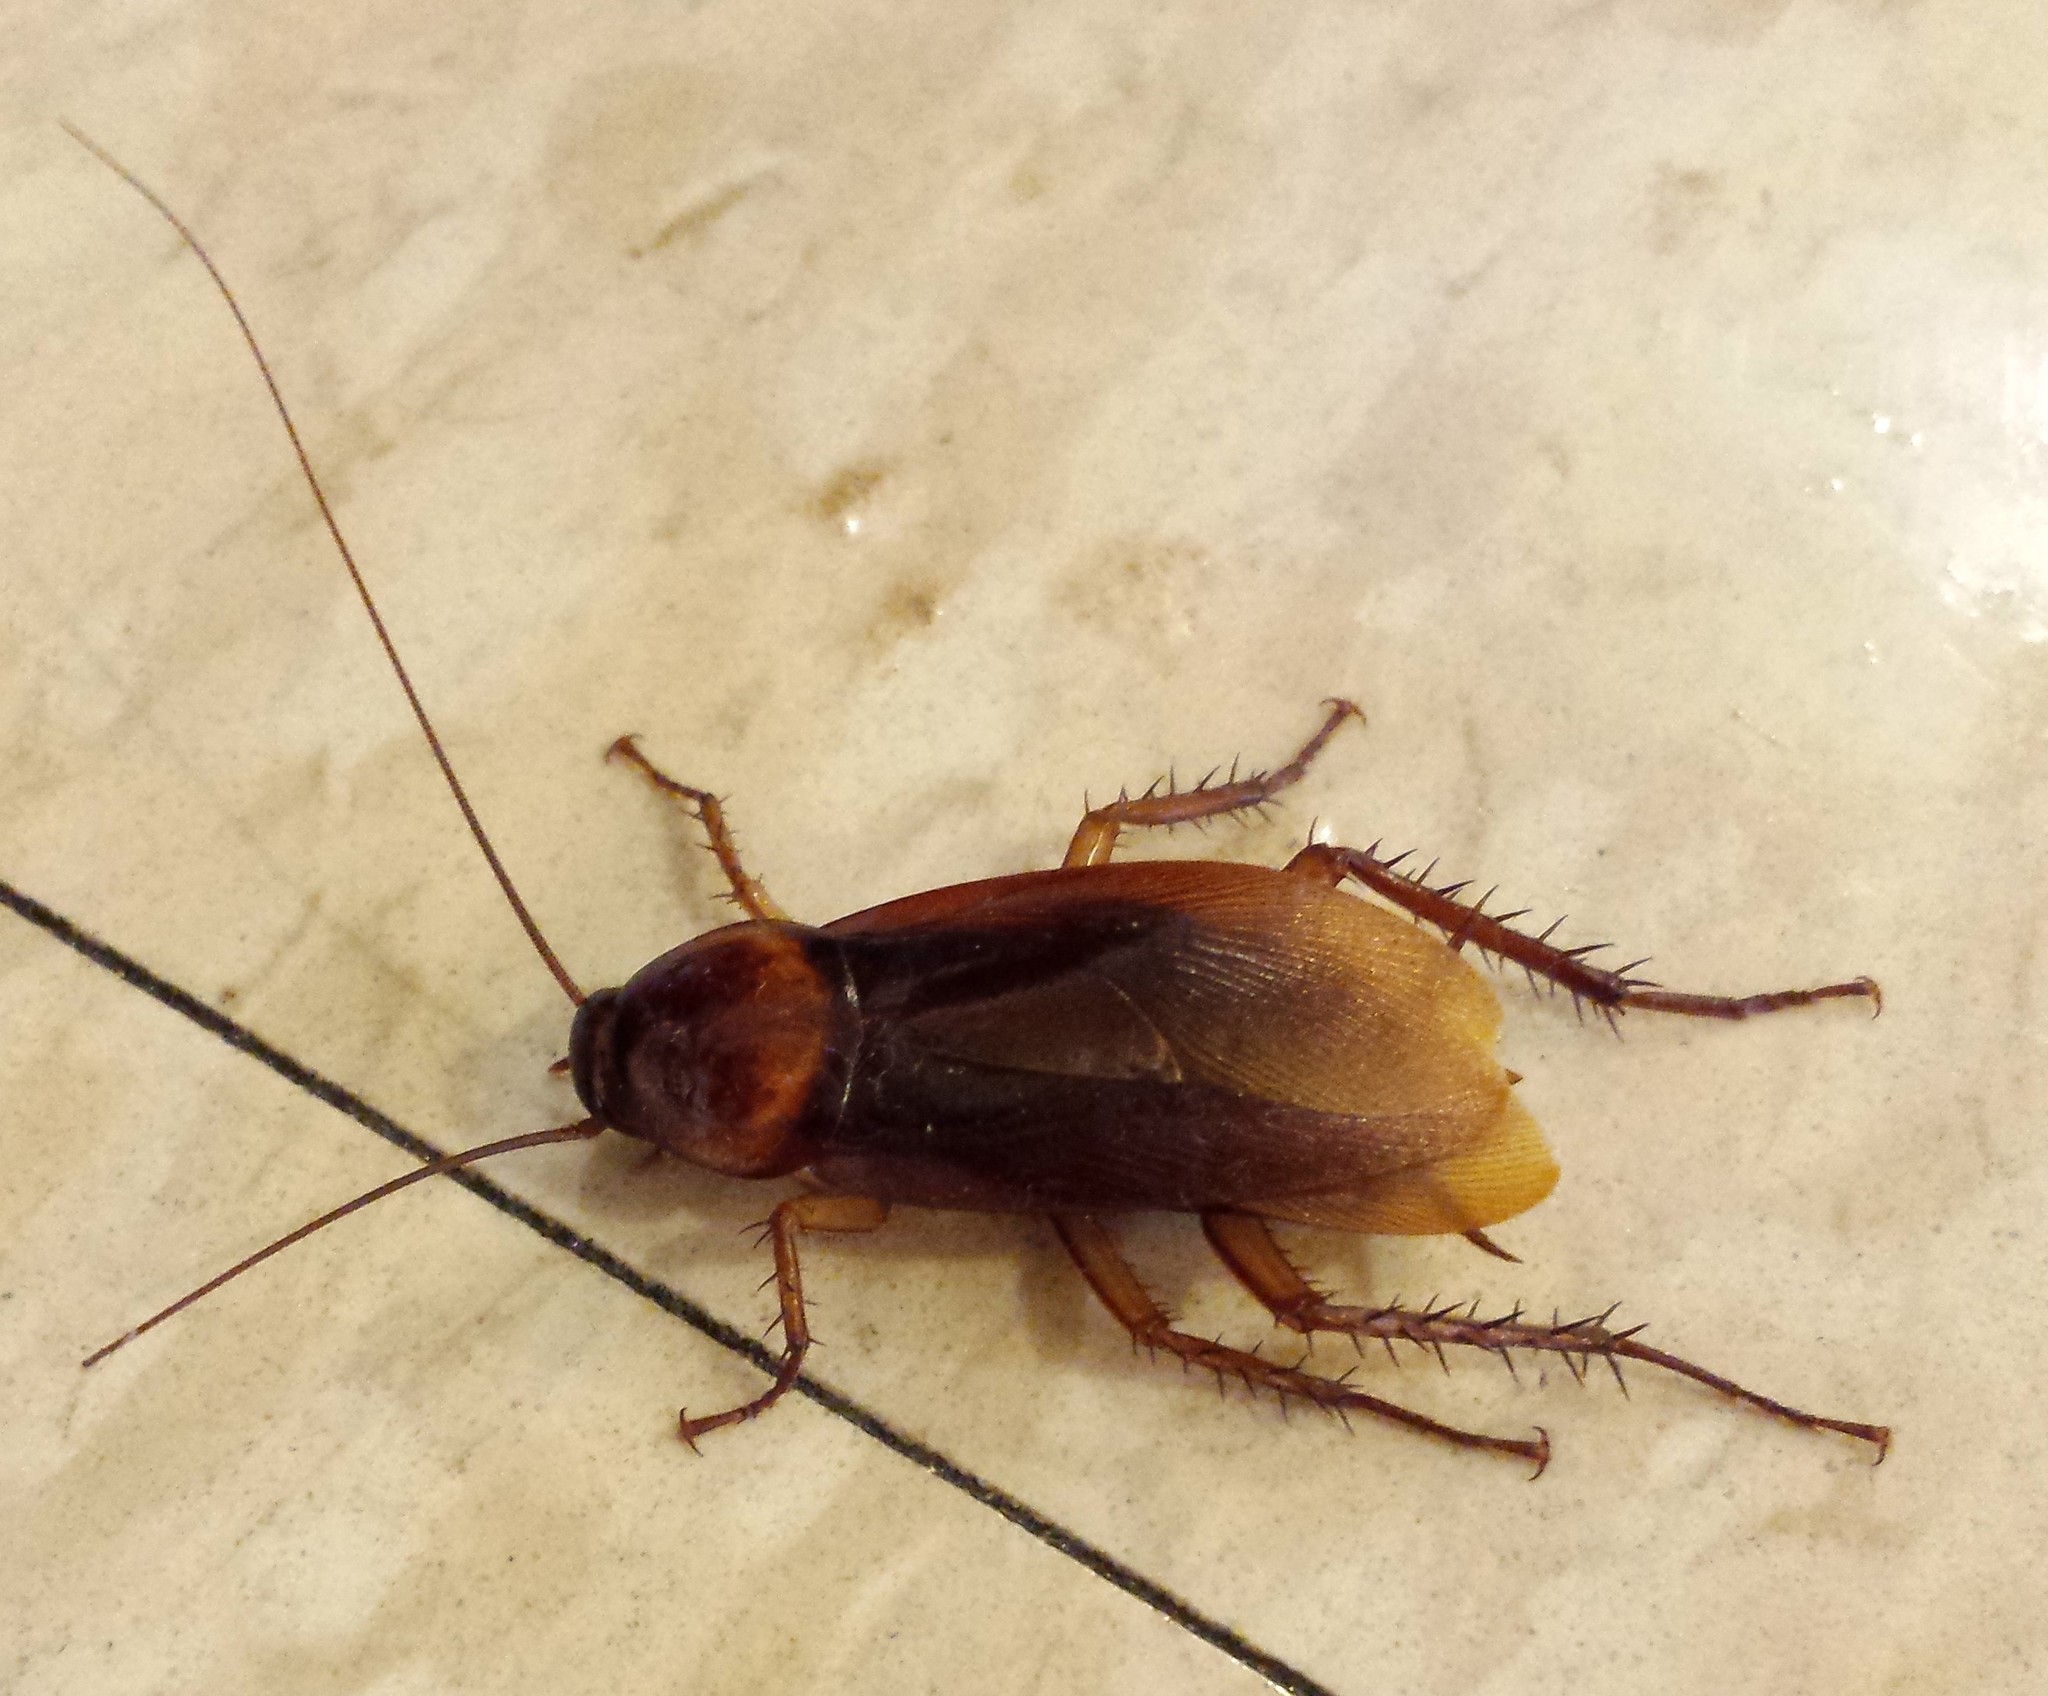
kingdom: Animalia
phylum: Arthropoda
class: Insecta
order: Blattodea
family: Blattidae
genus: Periplaneta
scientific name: Periplaneta americana
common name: American cockroach
